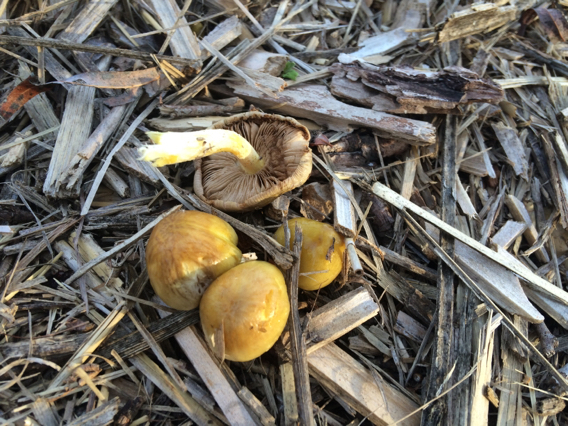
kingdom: Fungi
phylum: Basidiomycota
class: Agaricomycetes
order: Agaricales
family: Bolbitiaceae
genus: Bolbitius
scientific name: Bolbitius titubans
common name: Yellow fieldcap
